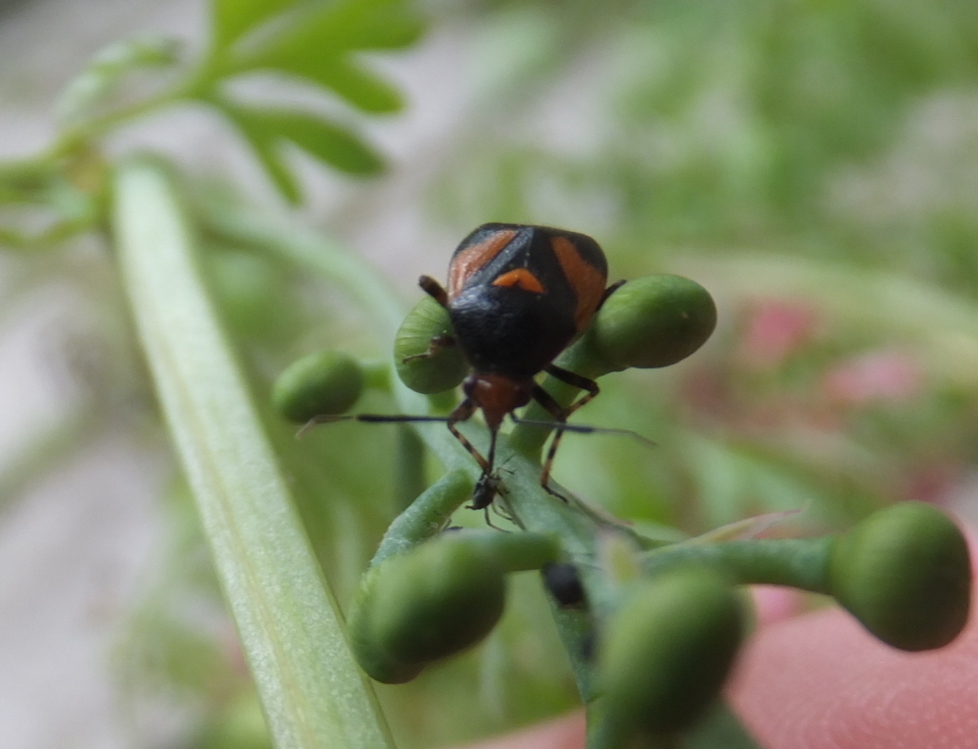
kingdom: Animalia
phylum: Arthropoda
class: Insecta
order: Hemiptera
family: Miridae
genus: Deraeocoris
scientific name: Deraeocoris schach
